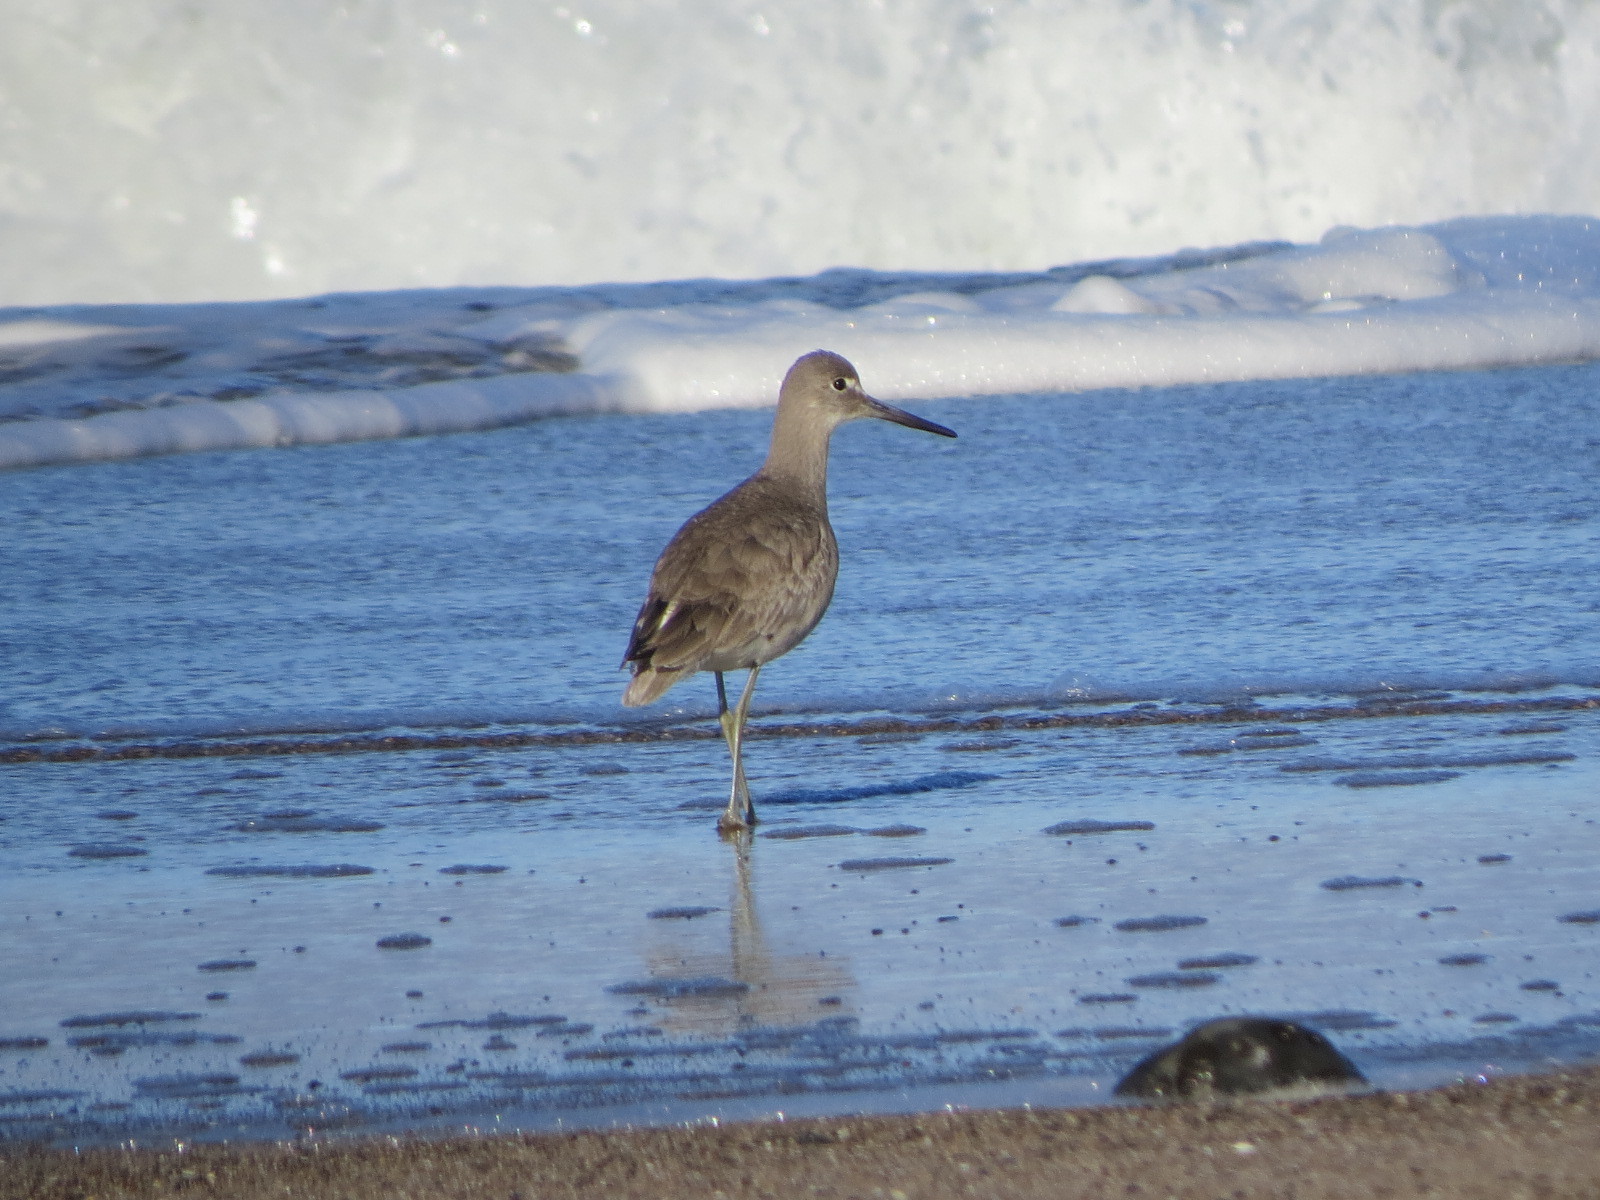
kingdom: Animalia
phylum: Chordata
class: Aves
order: Charadriiformes
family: Scolopacidae
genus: Tringa
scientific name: Tringa semipalmata
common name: Willet
